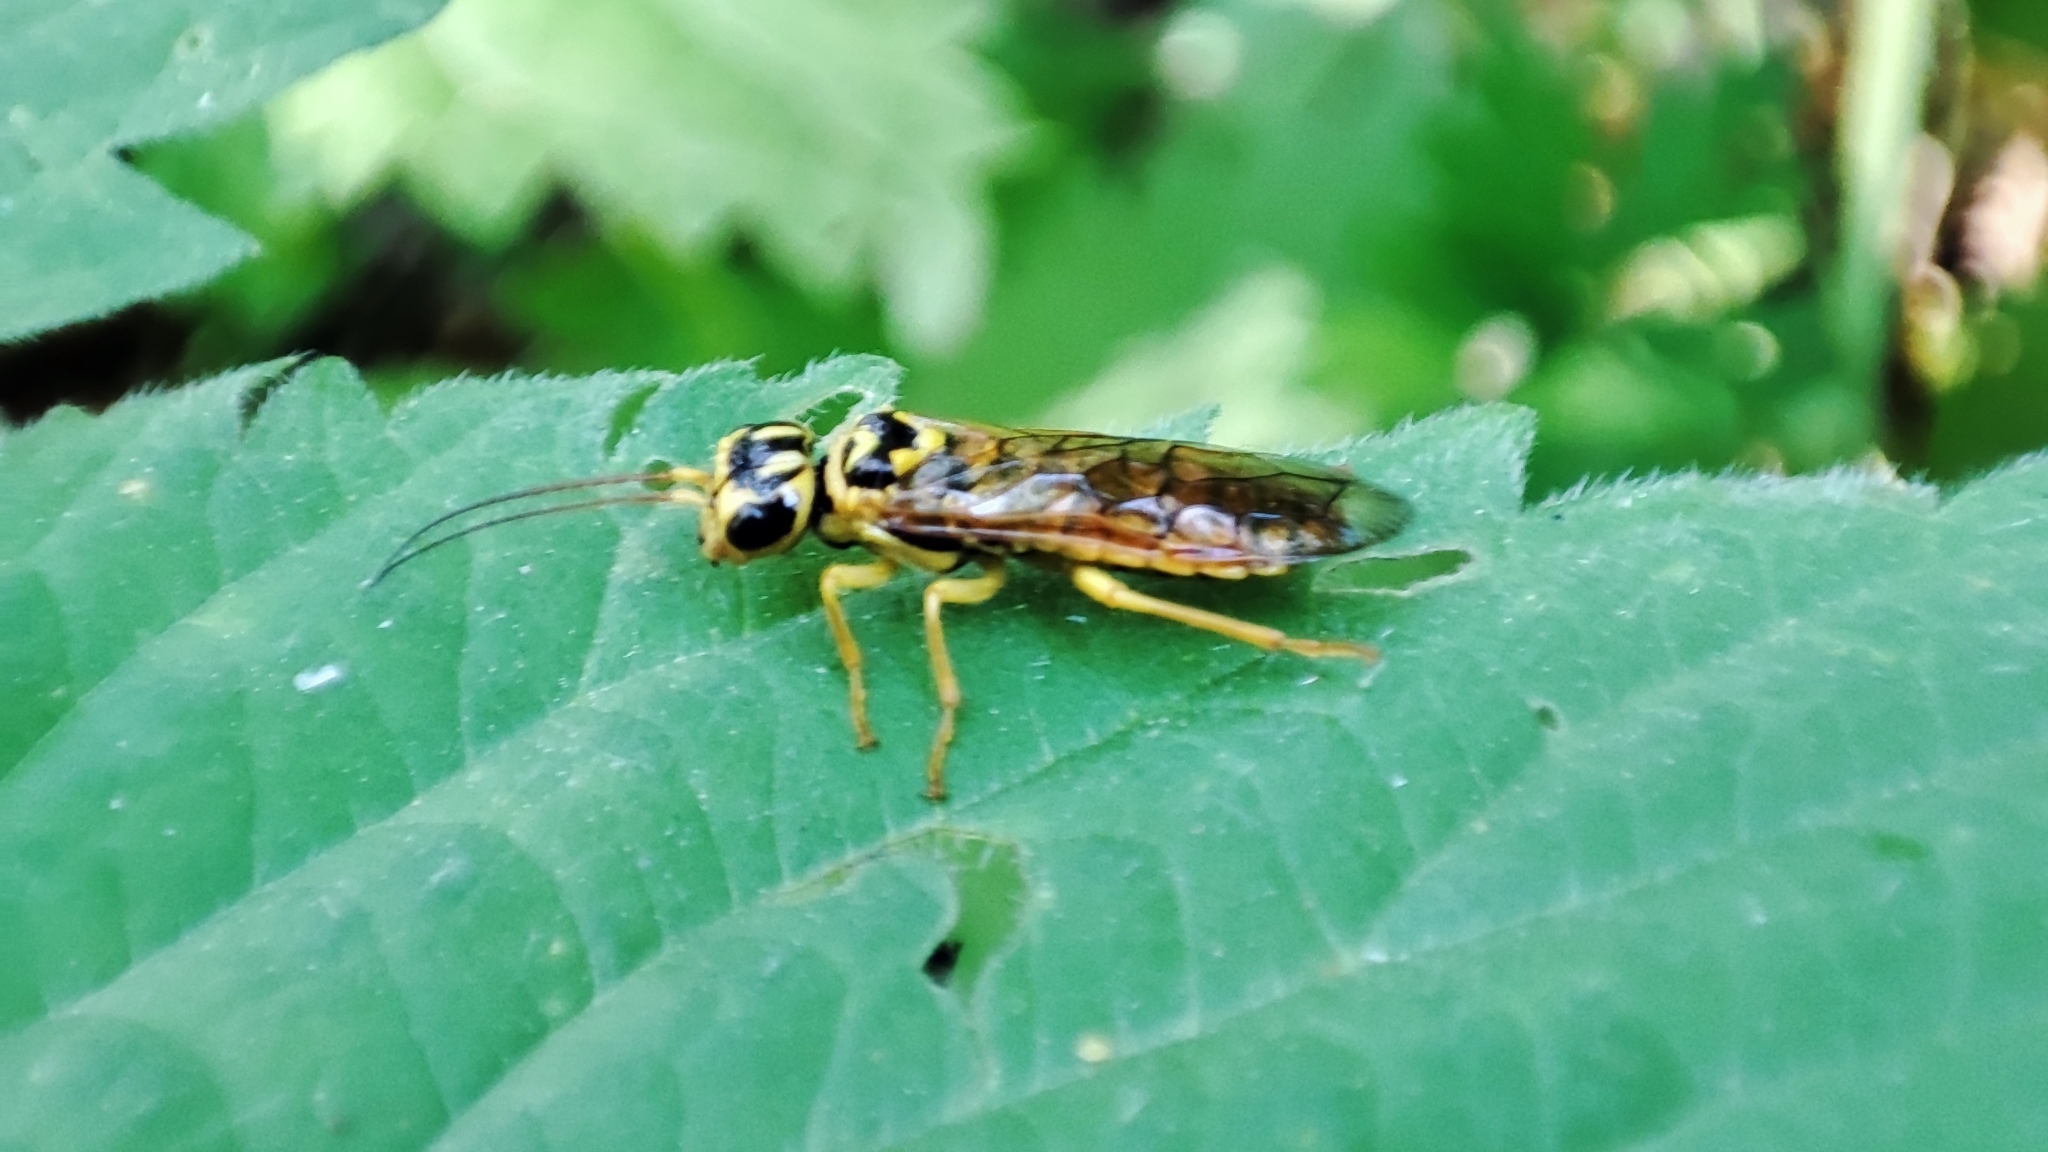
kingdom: Animalia
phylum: Arthropoda
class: Insecta
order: Hymenoptera
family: Pamphiliidae
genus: Pamphilius
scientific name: Pamphilius brevicornis
